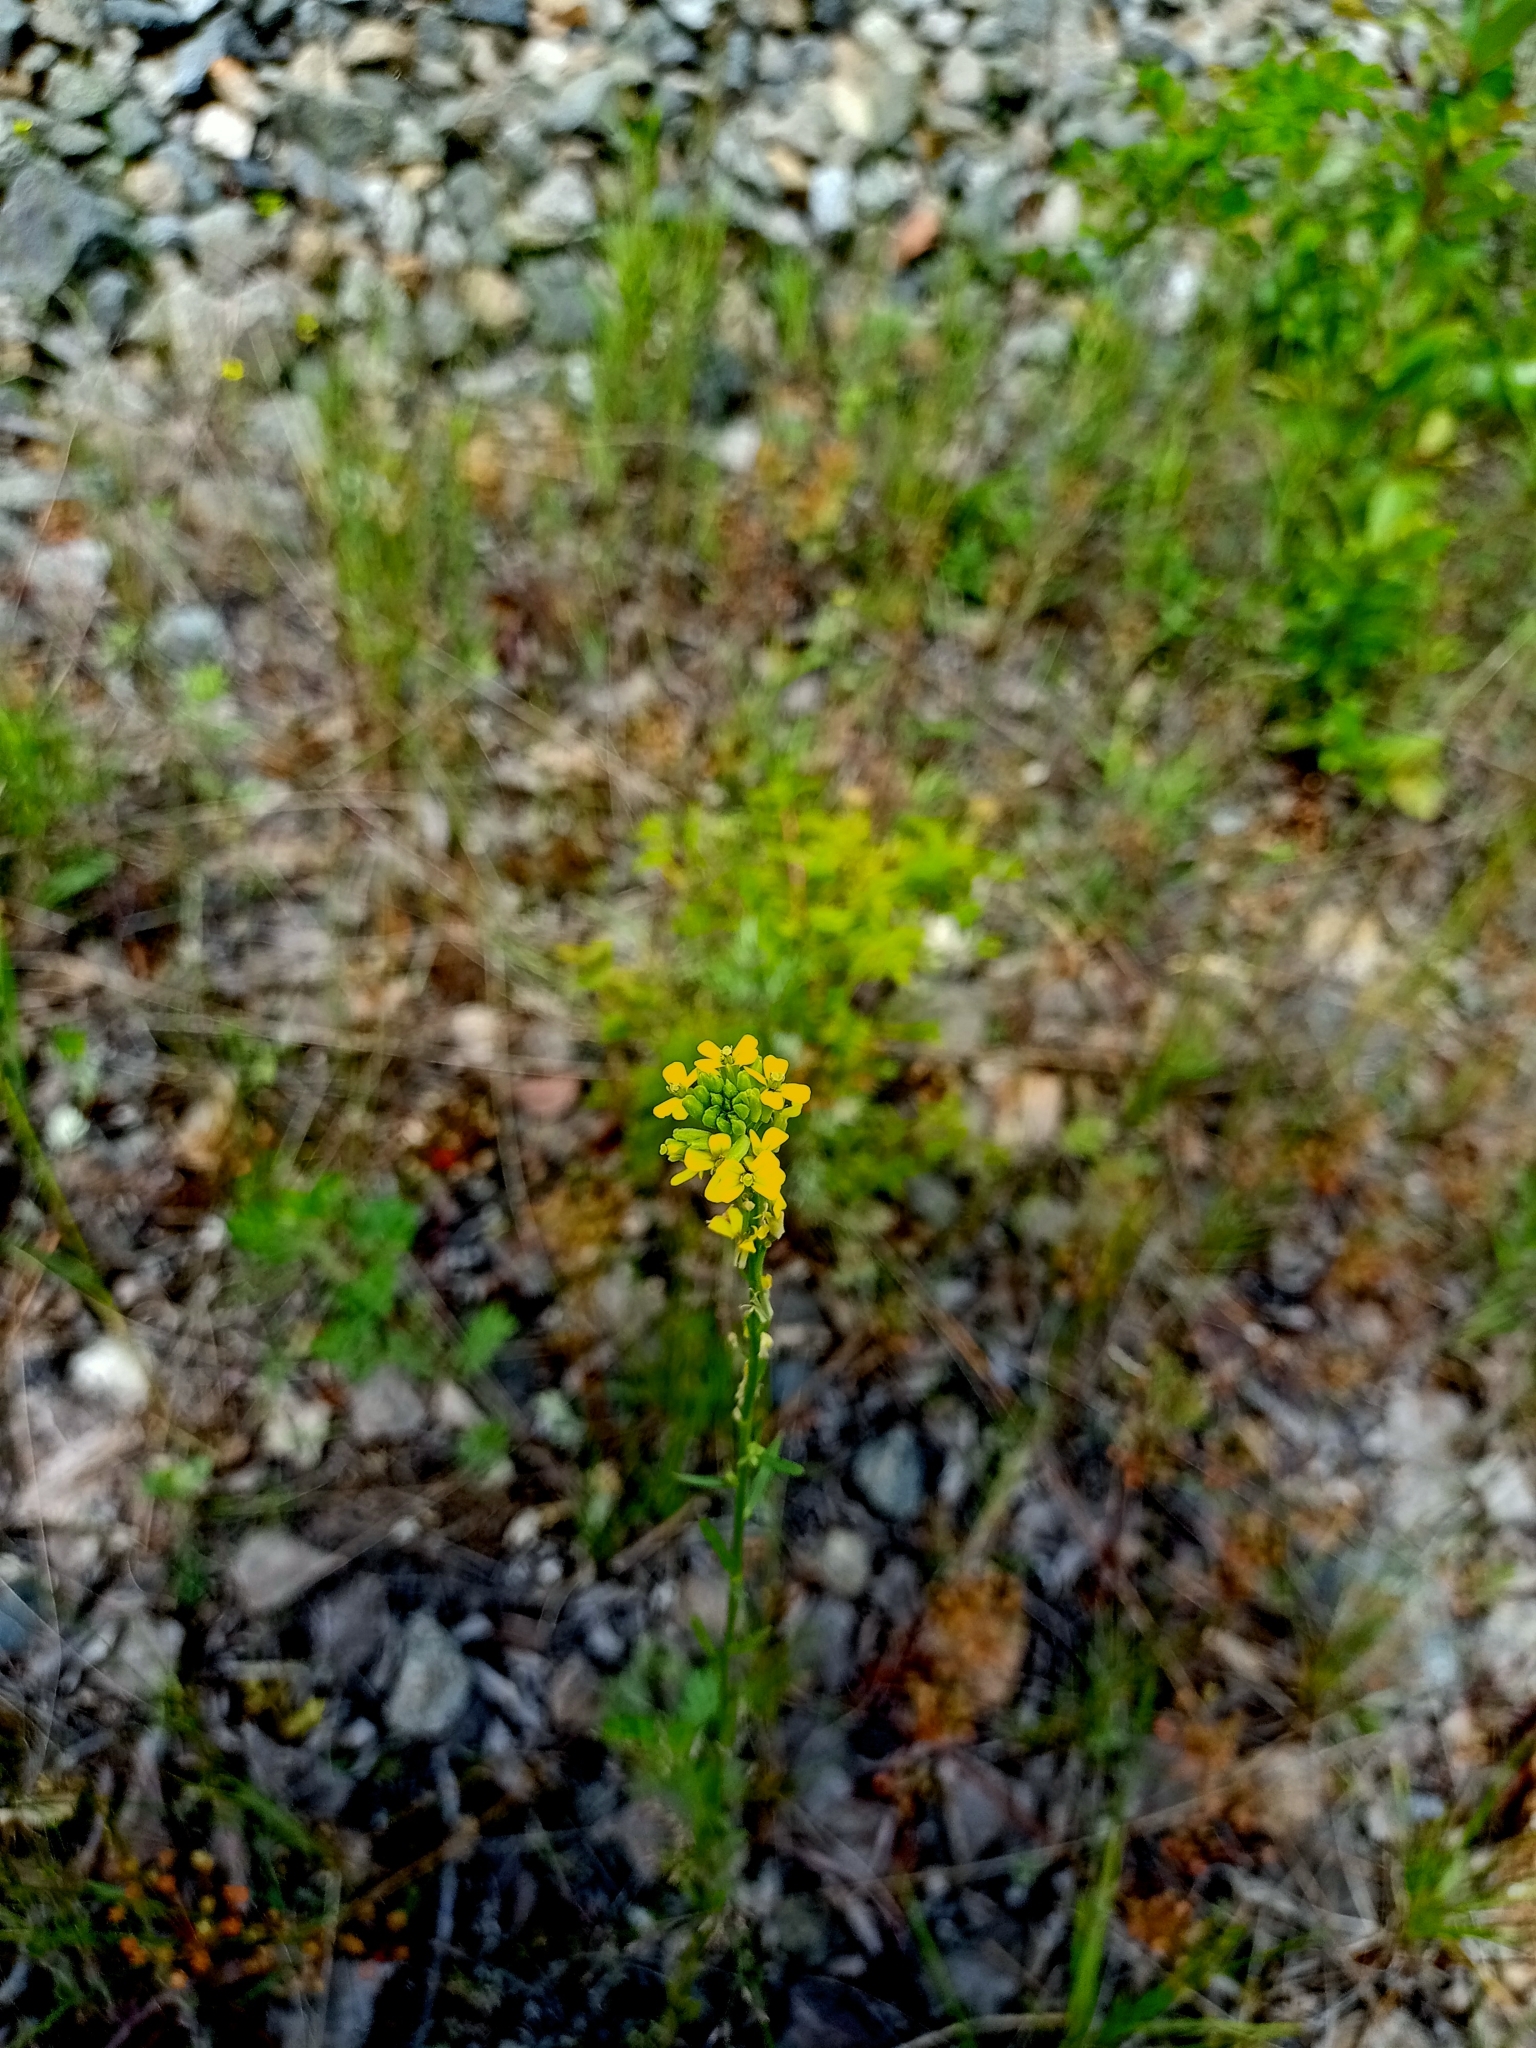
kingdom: Plantae
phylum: Tracheophyta
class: Magnoliopsida
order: Brassicales
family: Brassicaceae
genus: Erysimum
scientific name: Erysimum hieraciifolium
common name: European wallflower
